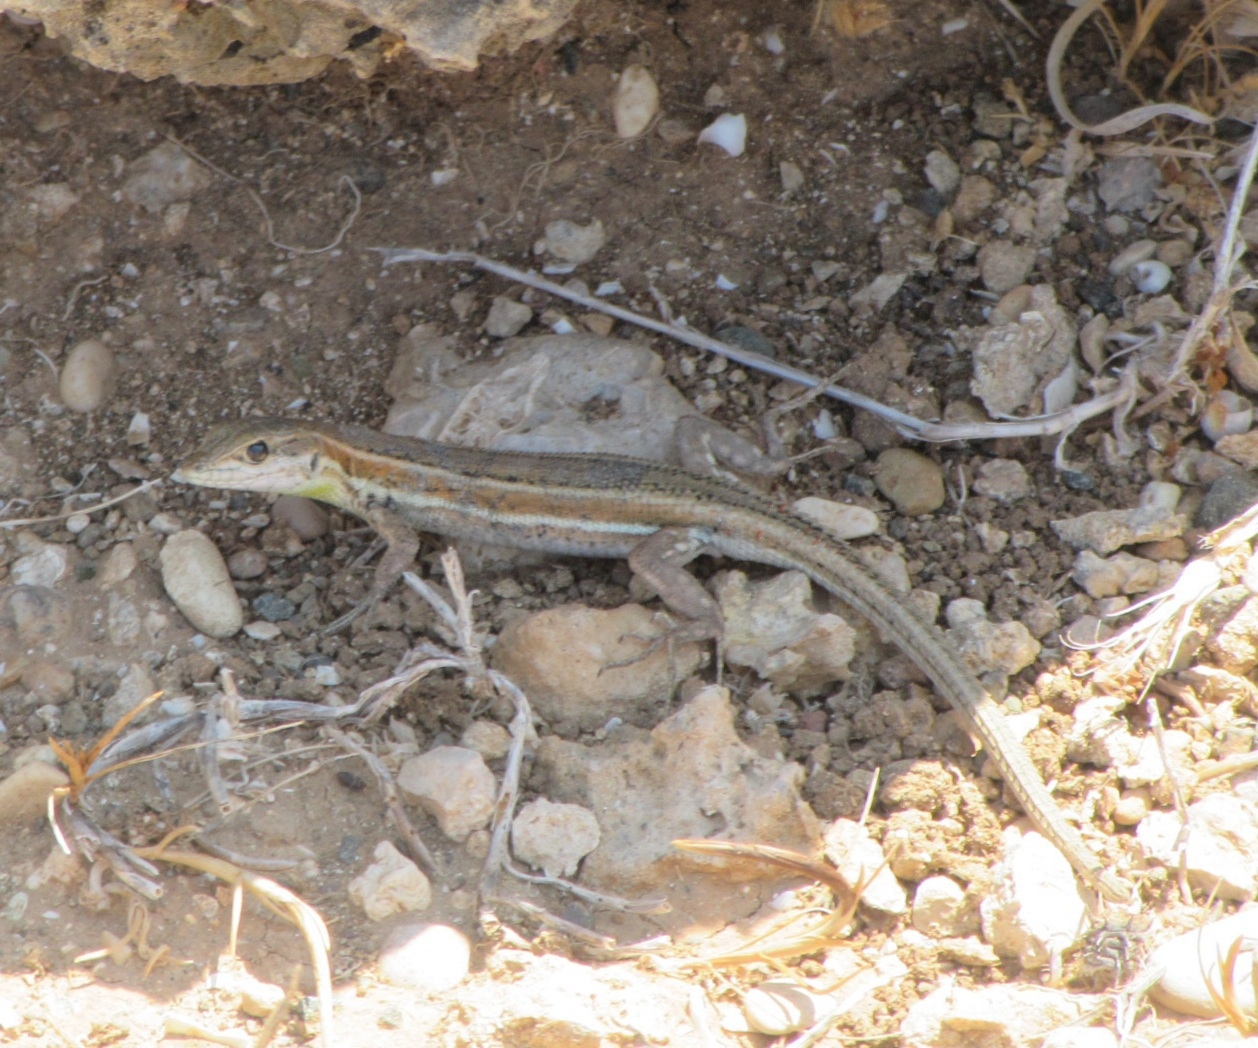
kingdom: Animalia
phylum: Chordata
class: Squamata
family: Lacertidae
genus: Ophisops
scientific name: Ophisops elegans
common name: Snake-eyed lizard
